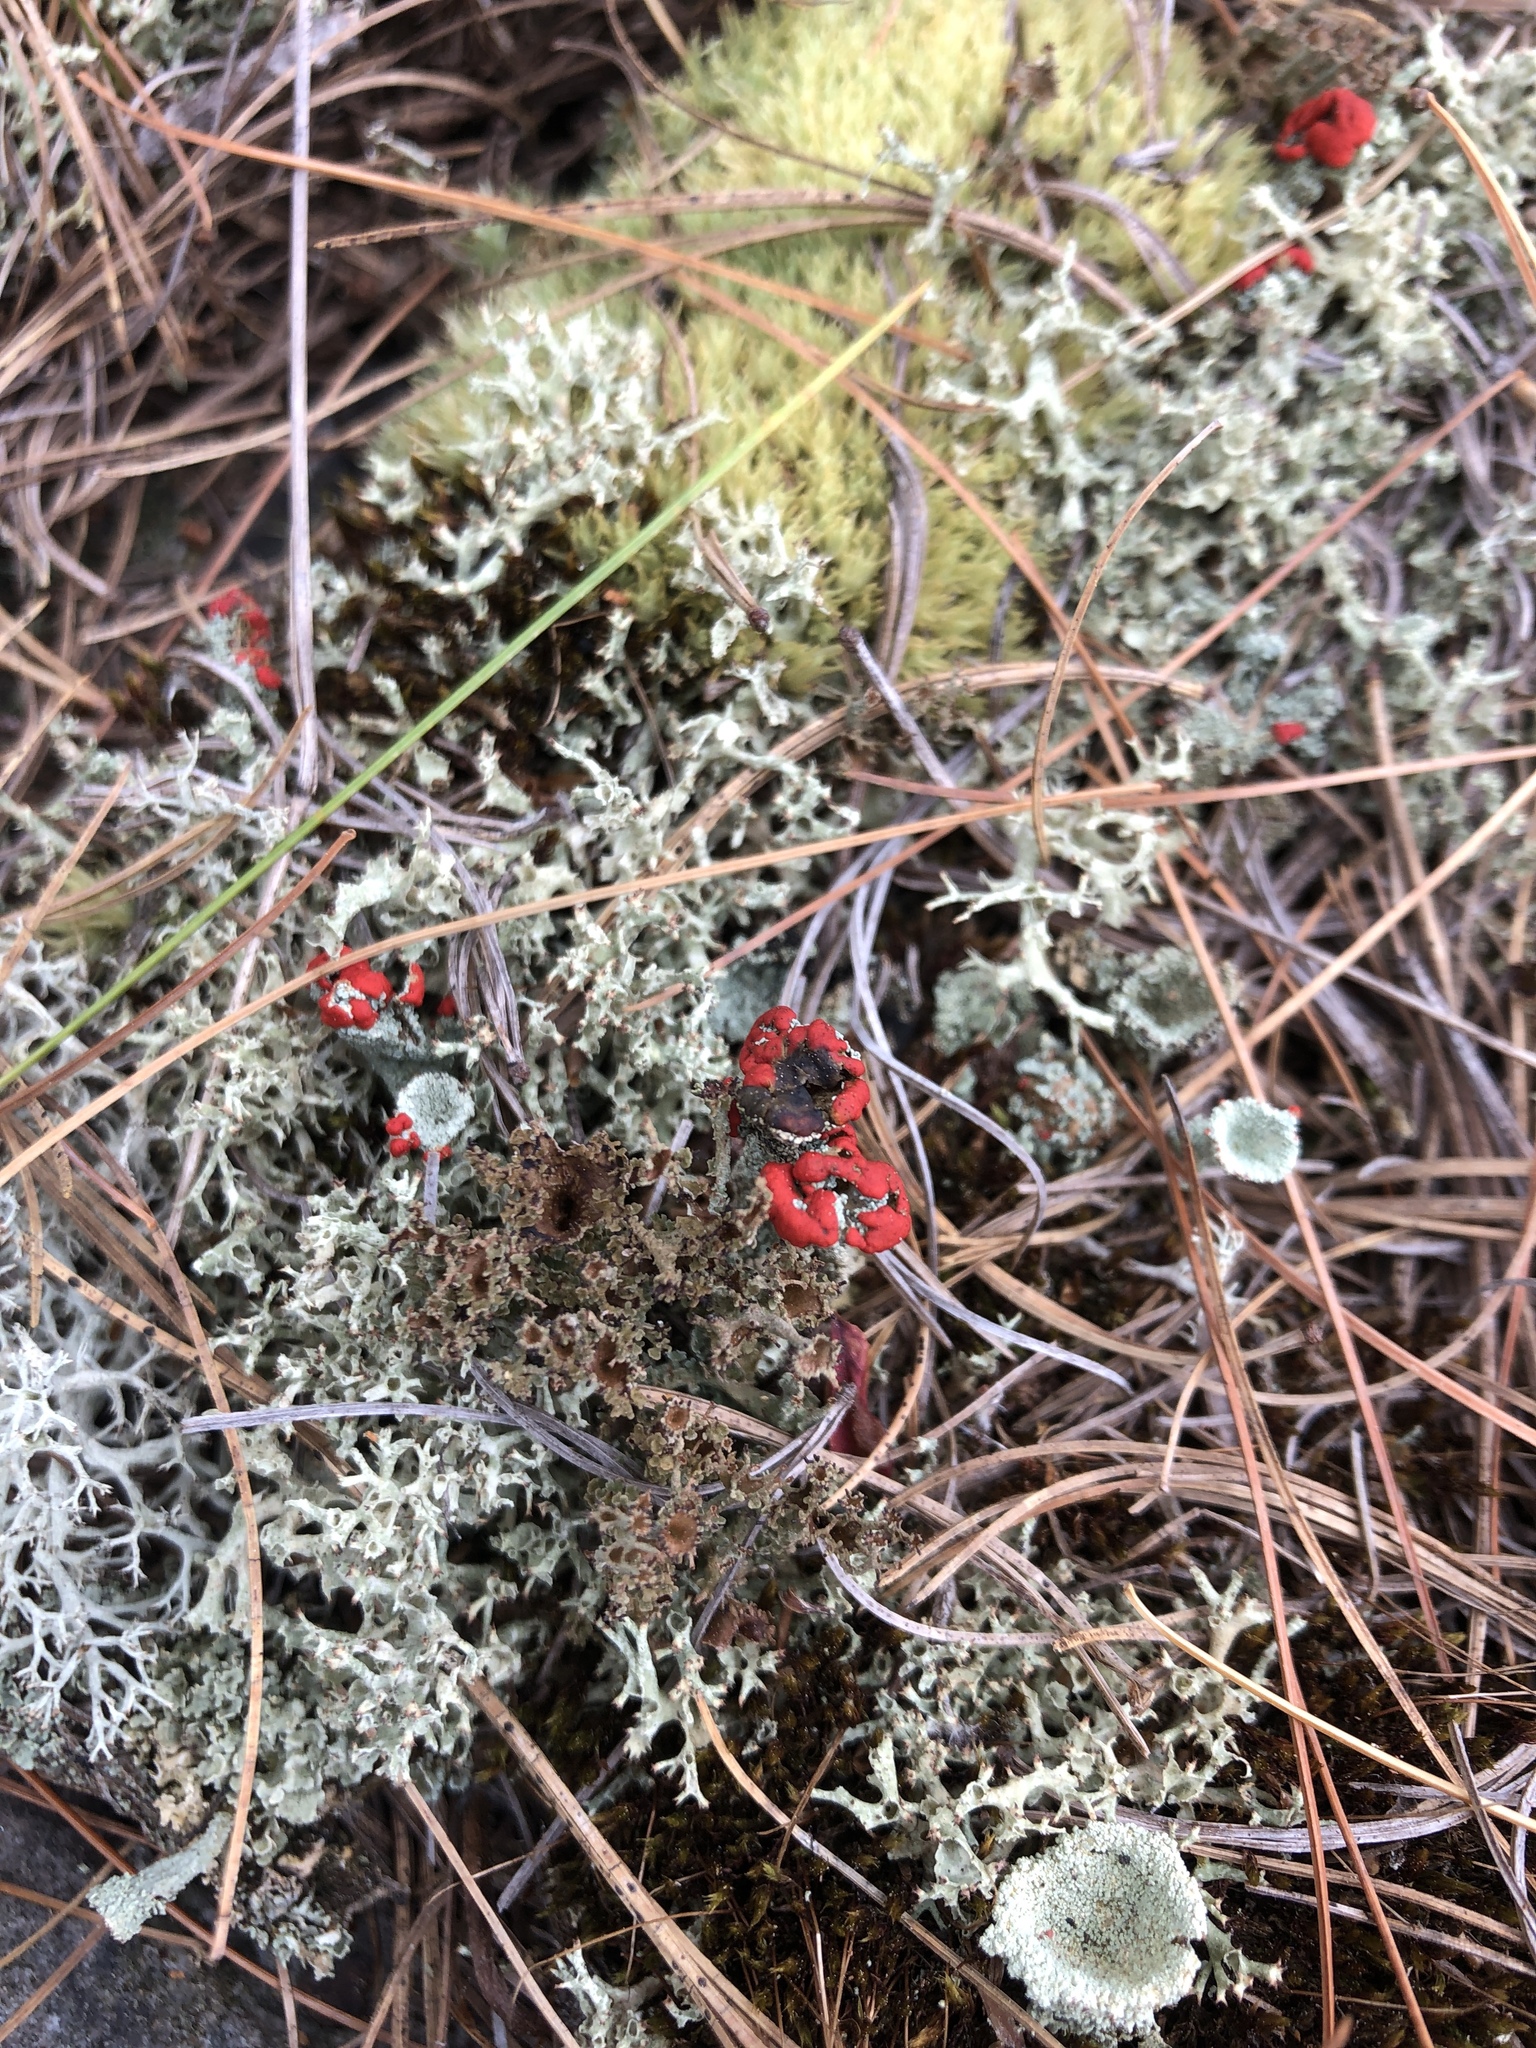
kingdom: Fungi
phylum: Ascomycota
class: Lecanoromycetes
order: Lecanorales
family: Cladoniaceae
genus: Cladonia
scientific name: Cladonia cristatella
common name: British soldier lichen
